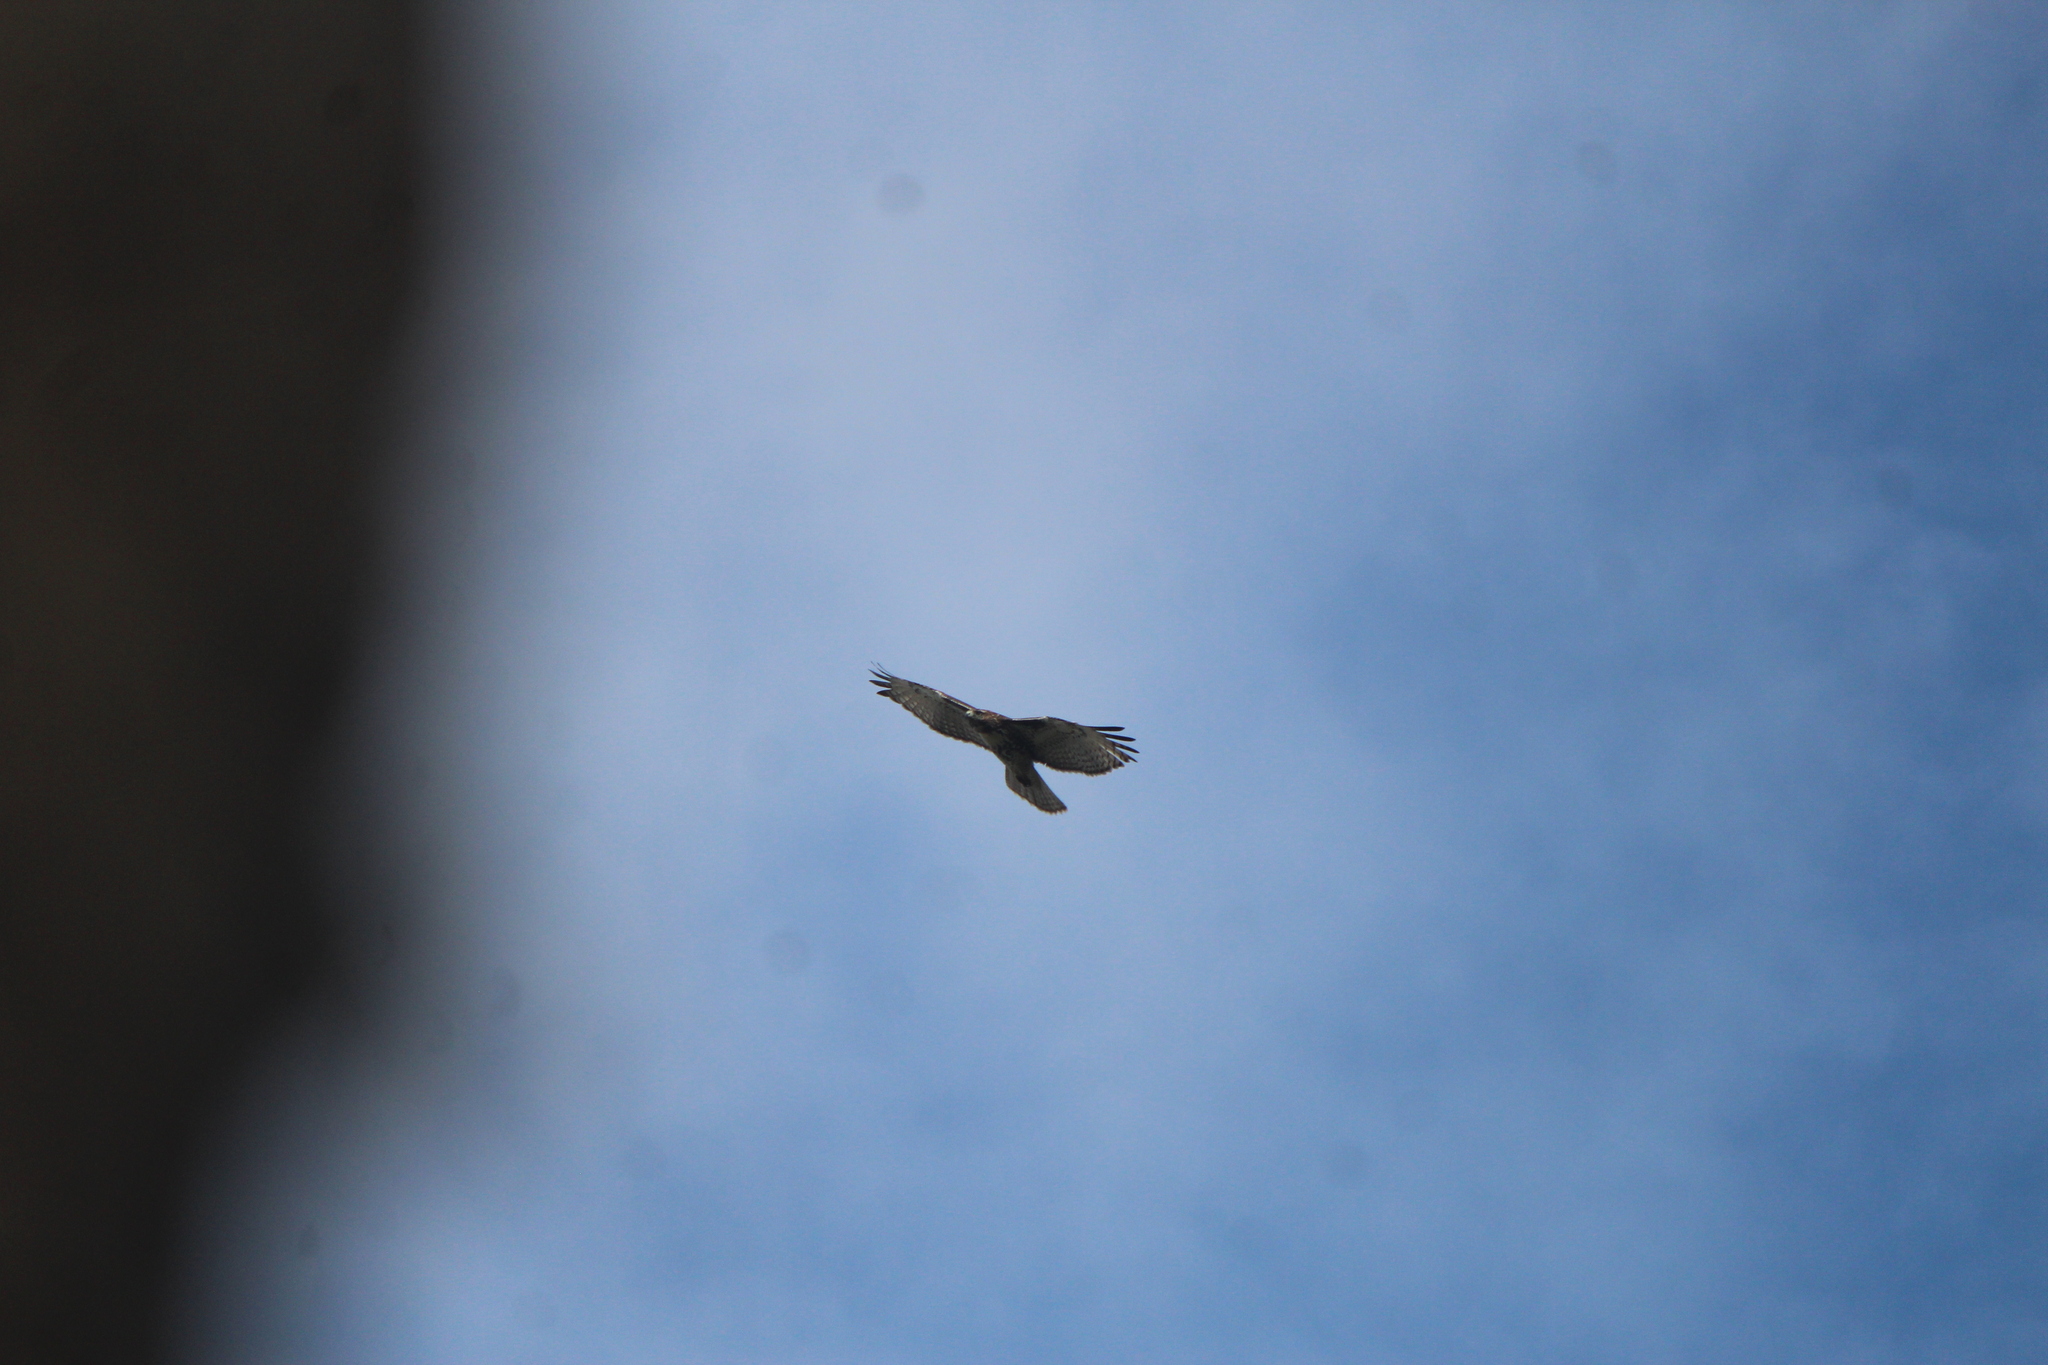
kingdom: Animalia
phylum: Chordata
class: Aves
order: Accipitriformes
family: Accipitridae
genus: Buteo
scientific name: Buteo jamaicensis
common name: Red-tailed hawk
